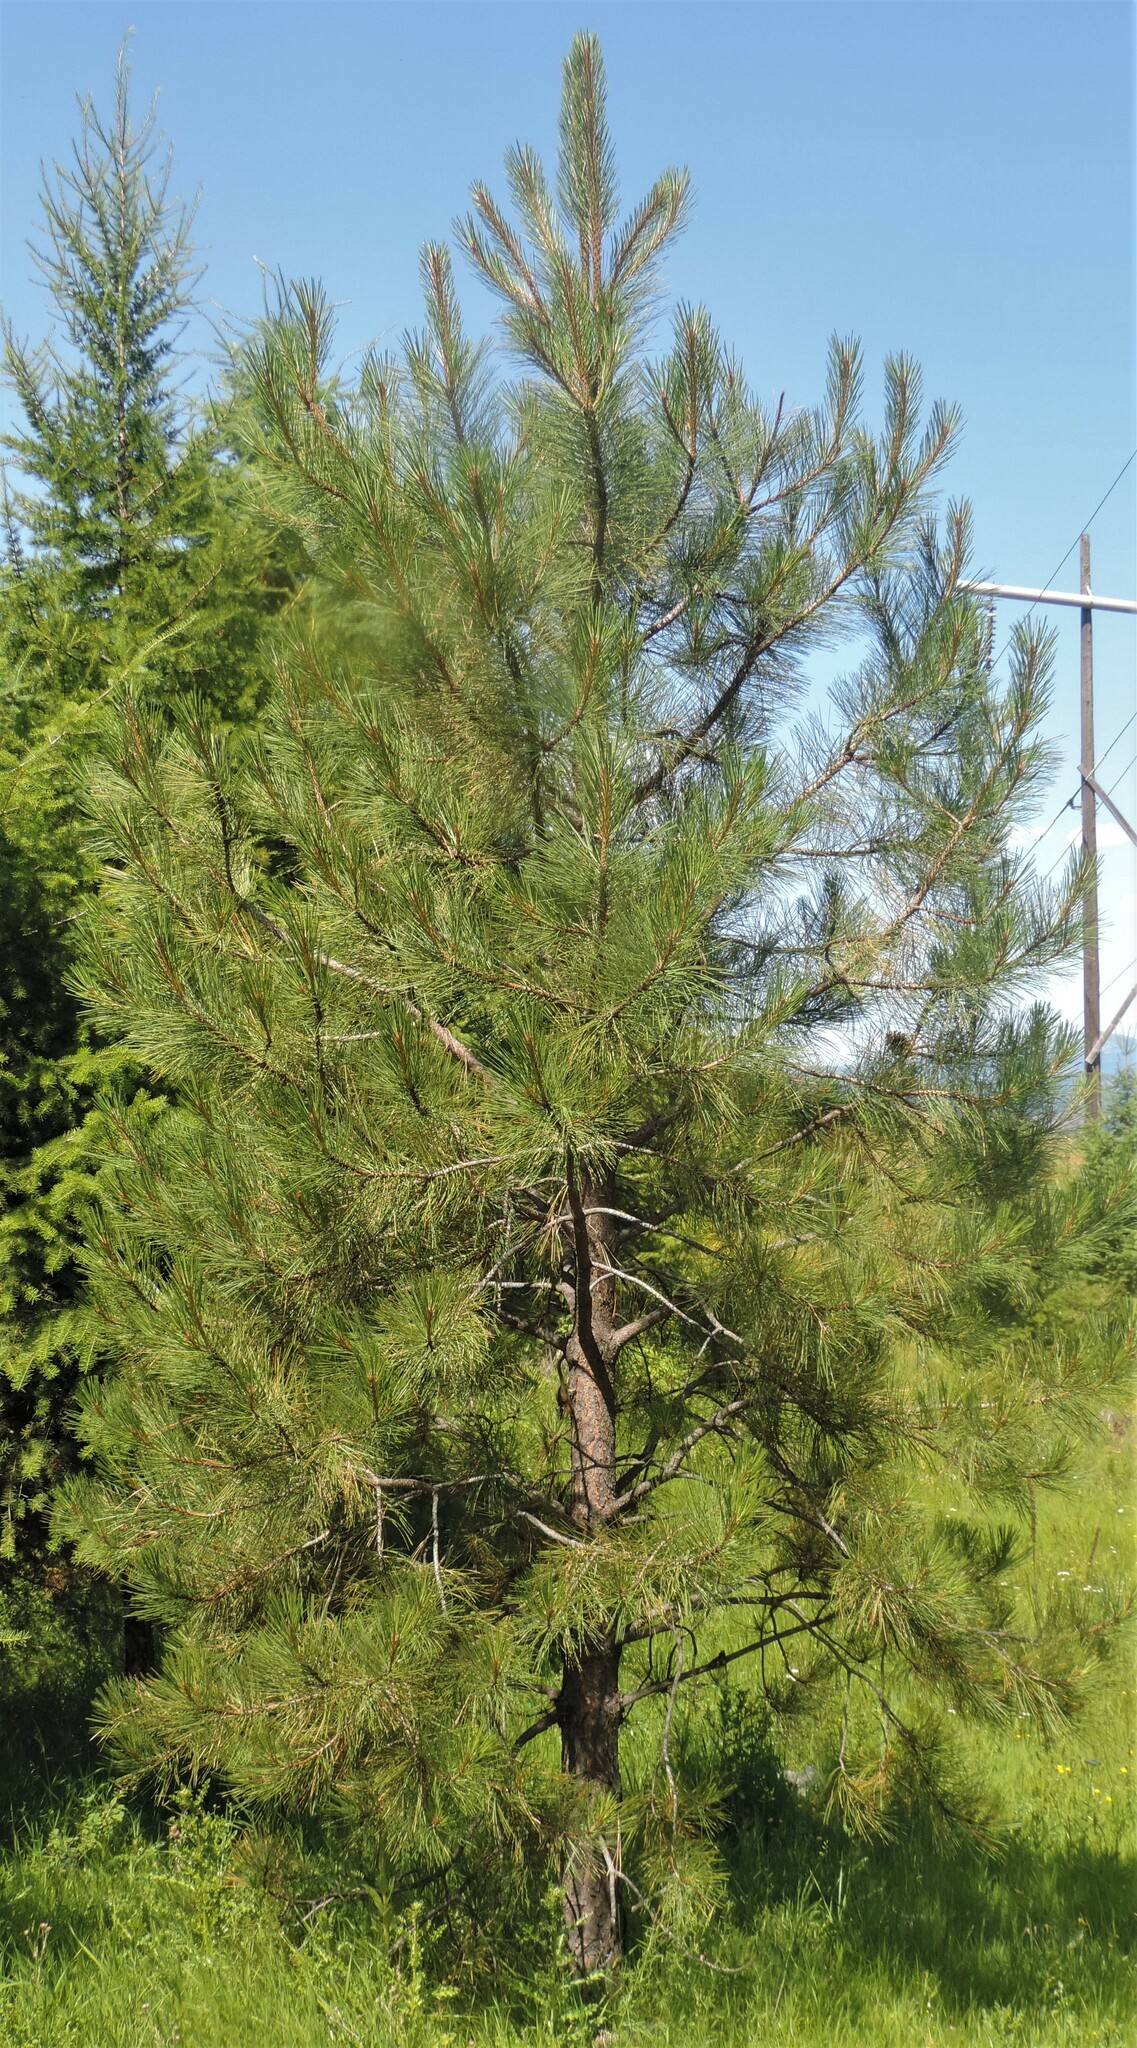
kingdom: Plantae
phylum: Tracheophyta
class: Pinopsida
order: Pinales
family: Pinaceae
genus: Pinus
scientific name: Pinus ponderosa
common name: Western yellow-pine
